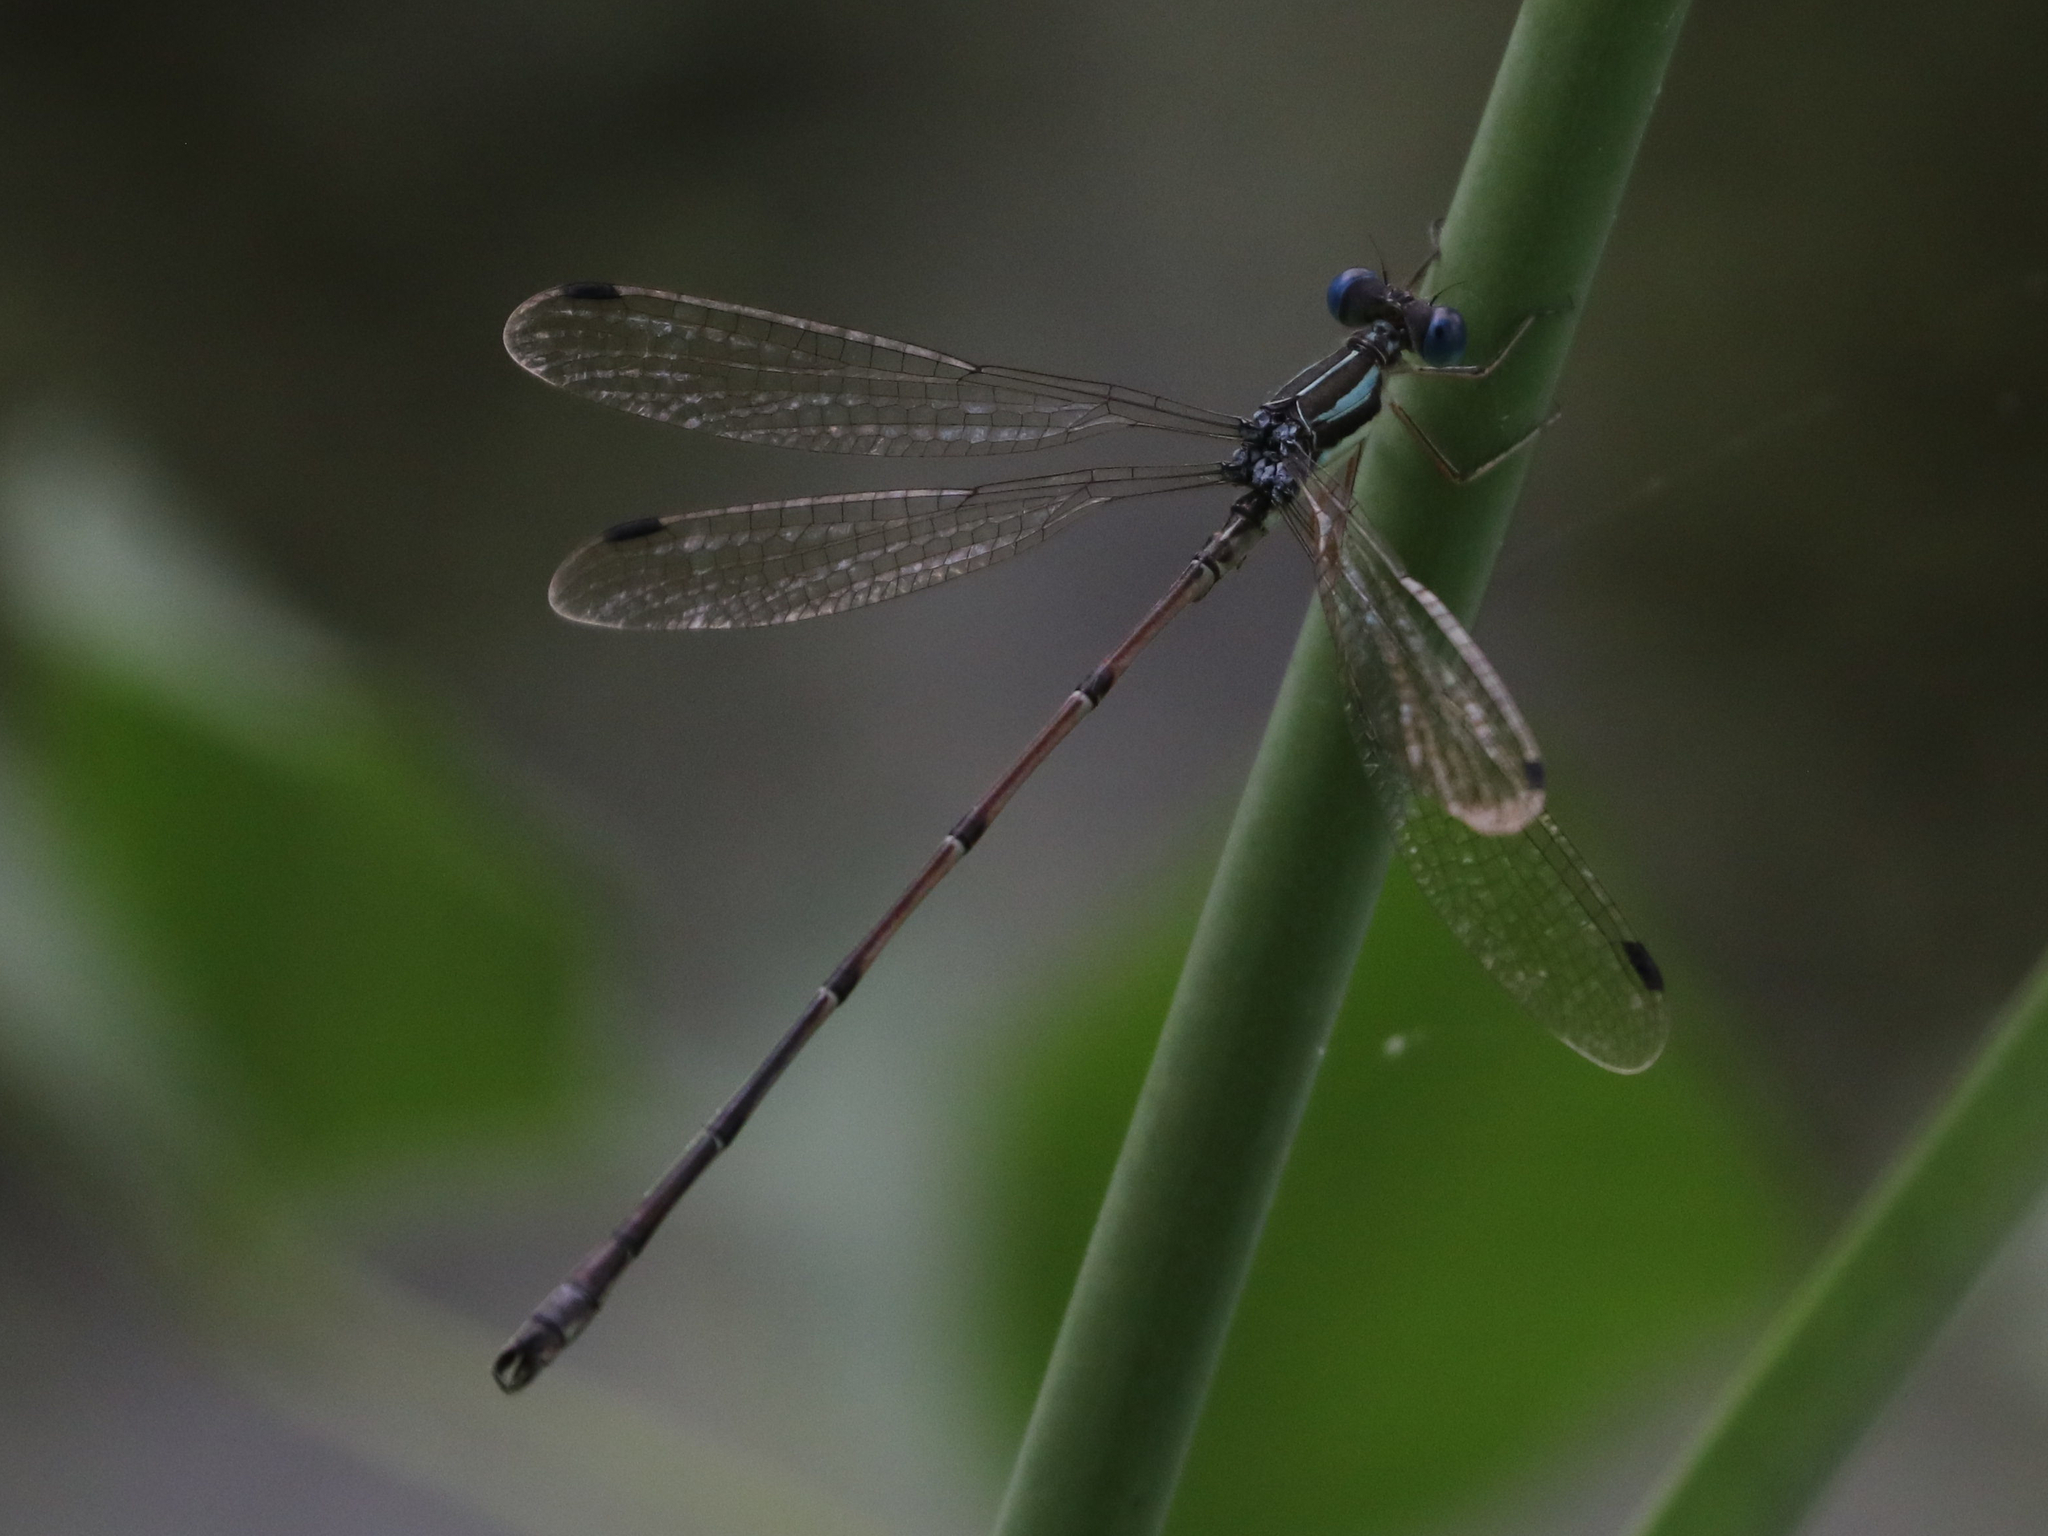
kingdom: Animalia
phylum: Arthropoda
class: Insecta
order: Odonata
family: Lestidae
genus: Lestes
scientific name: Lestes rectangularis
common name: Slender spreadwing
